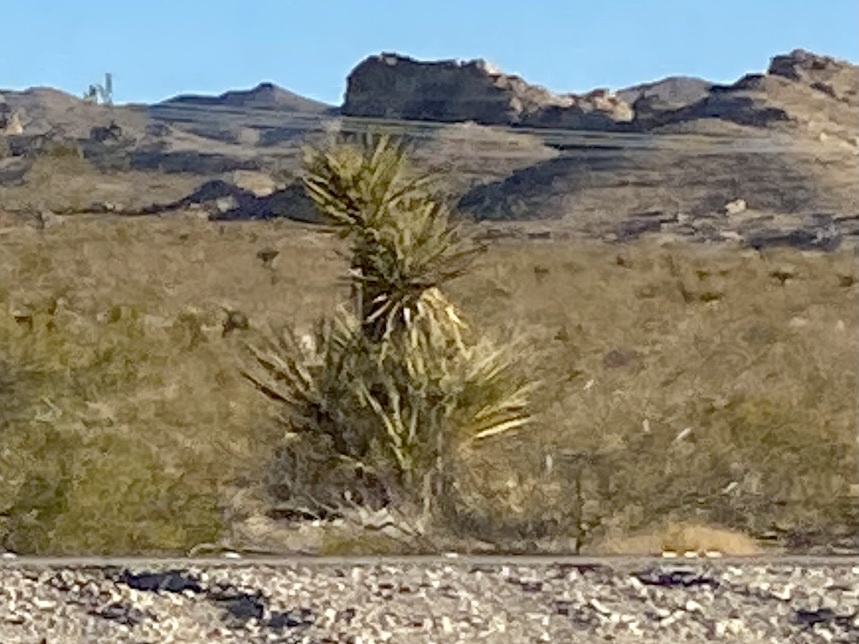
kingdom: Plantae
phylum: Tracheophyta
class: Liliopsida
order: Asparagales
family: Asparagaceae
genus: Yucca
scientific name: Yucca schidigera
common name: Mojave yucca
